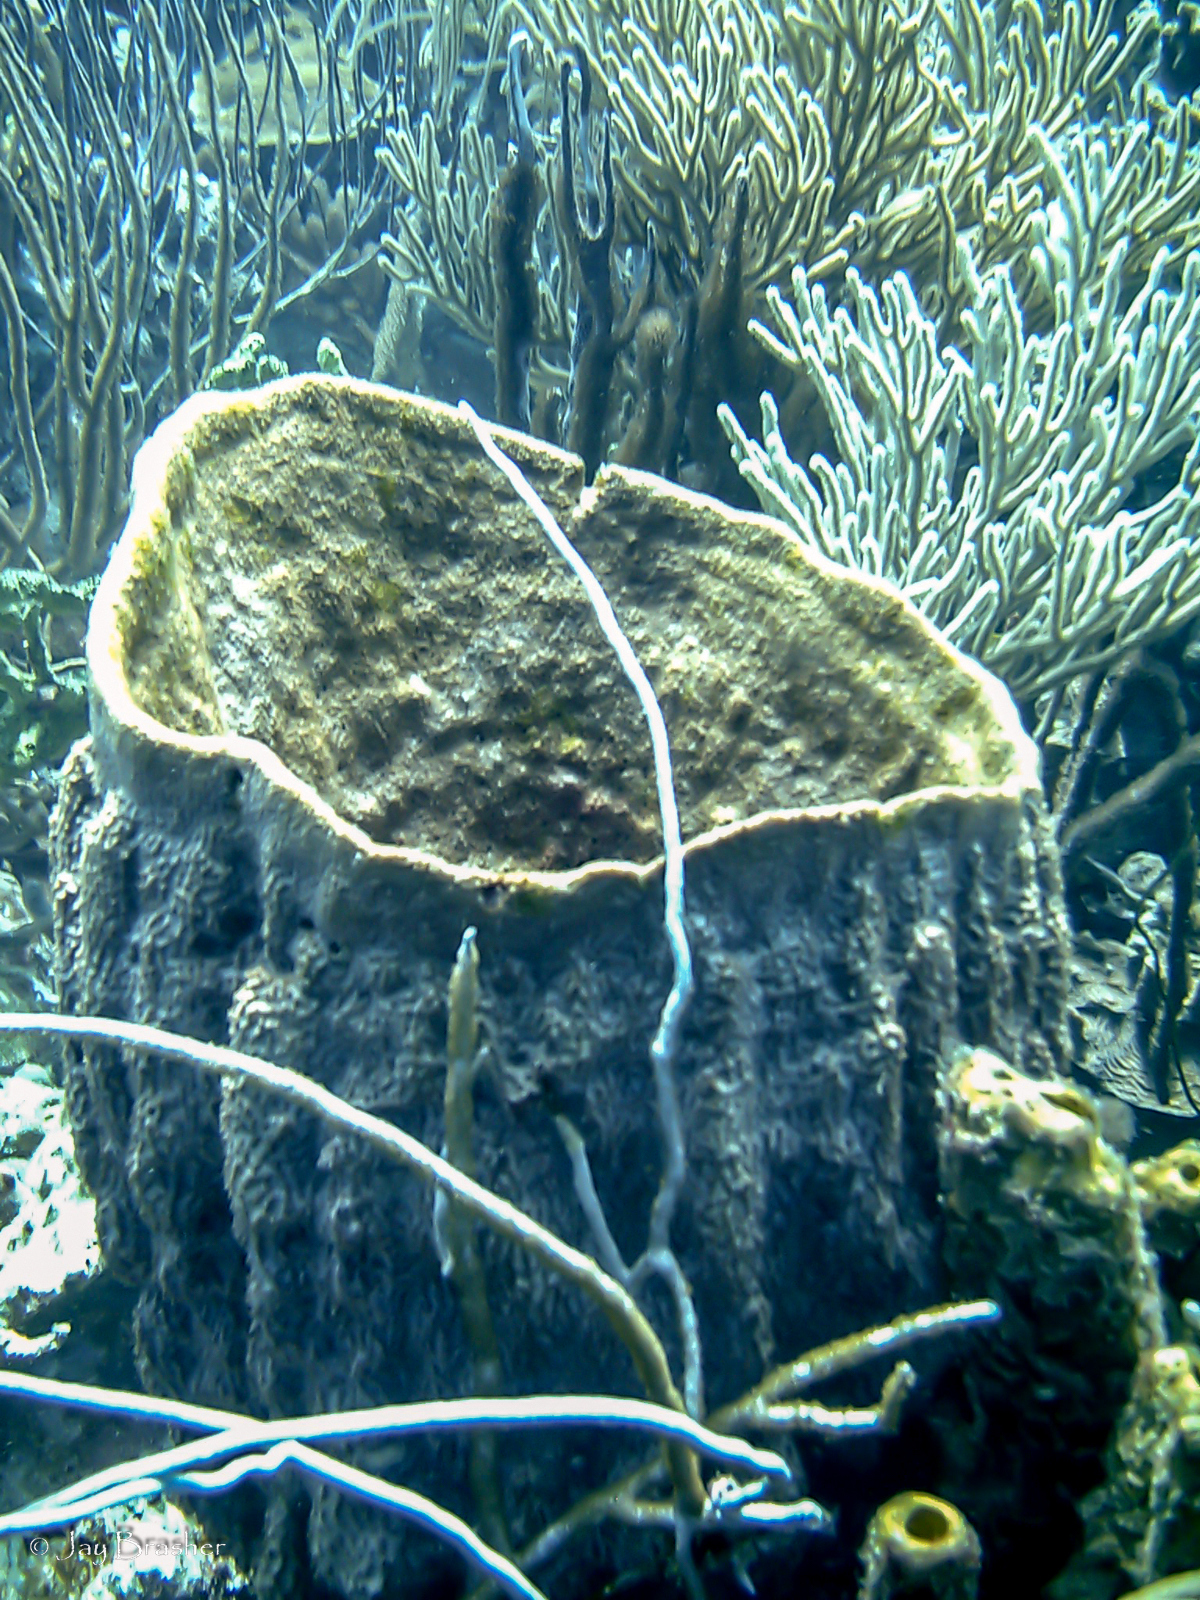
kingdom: Animalia
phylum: Porifera
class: Demospongiae
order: Dictyoceratida
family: Irciniidae
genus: Ircinia
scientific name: Ircinia campana
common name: Vase sponge
